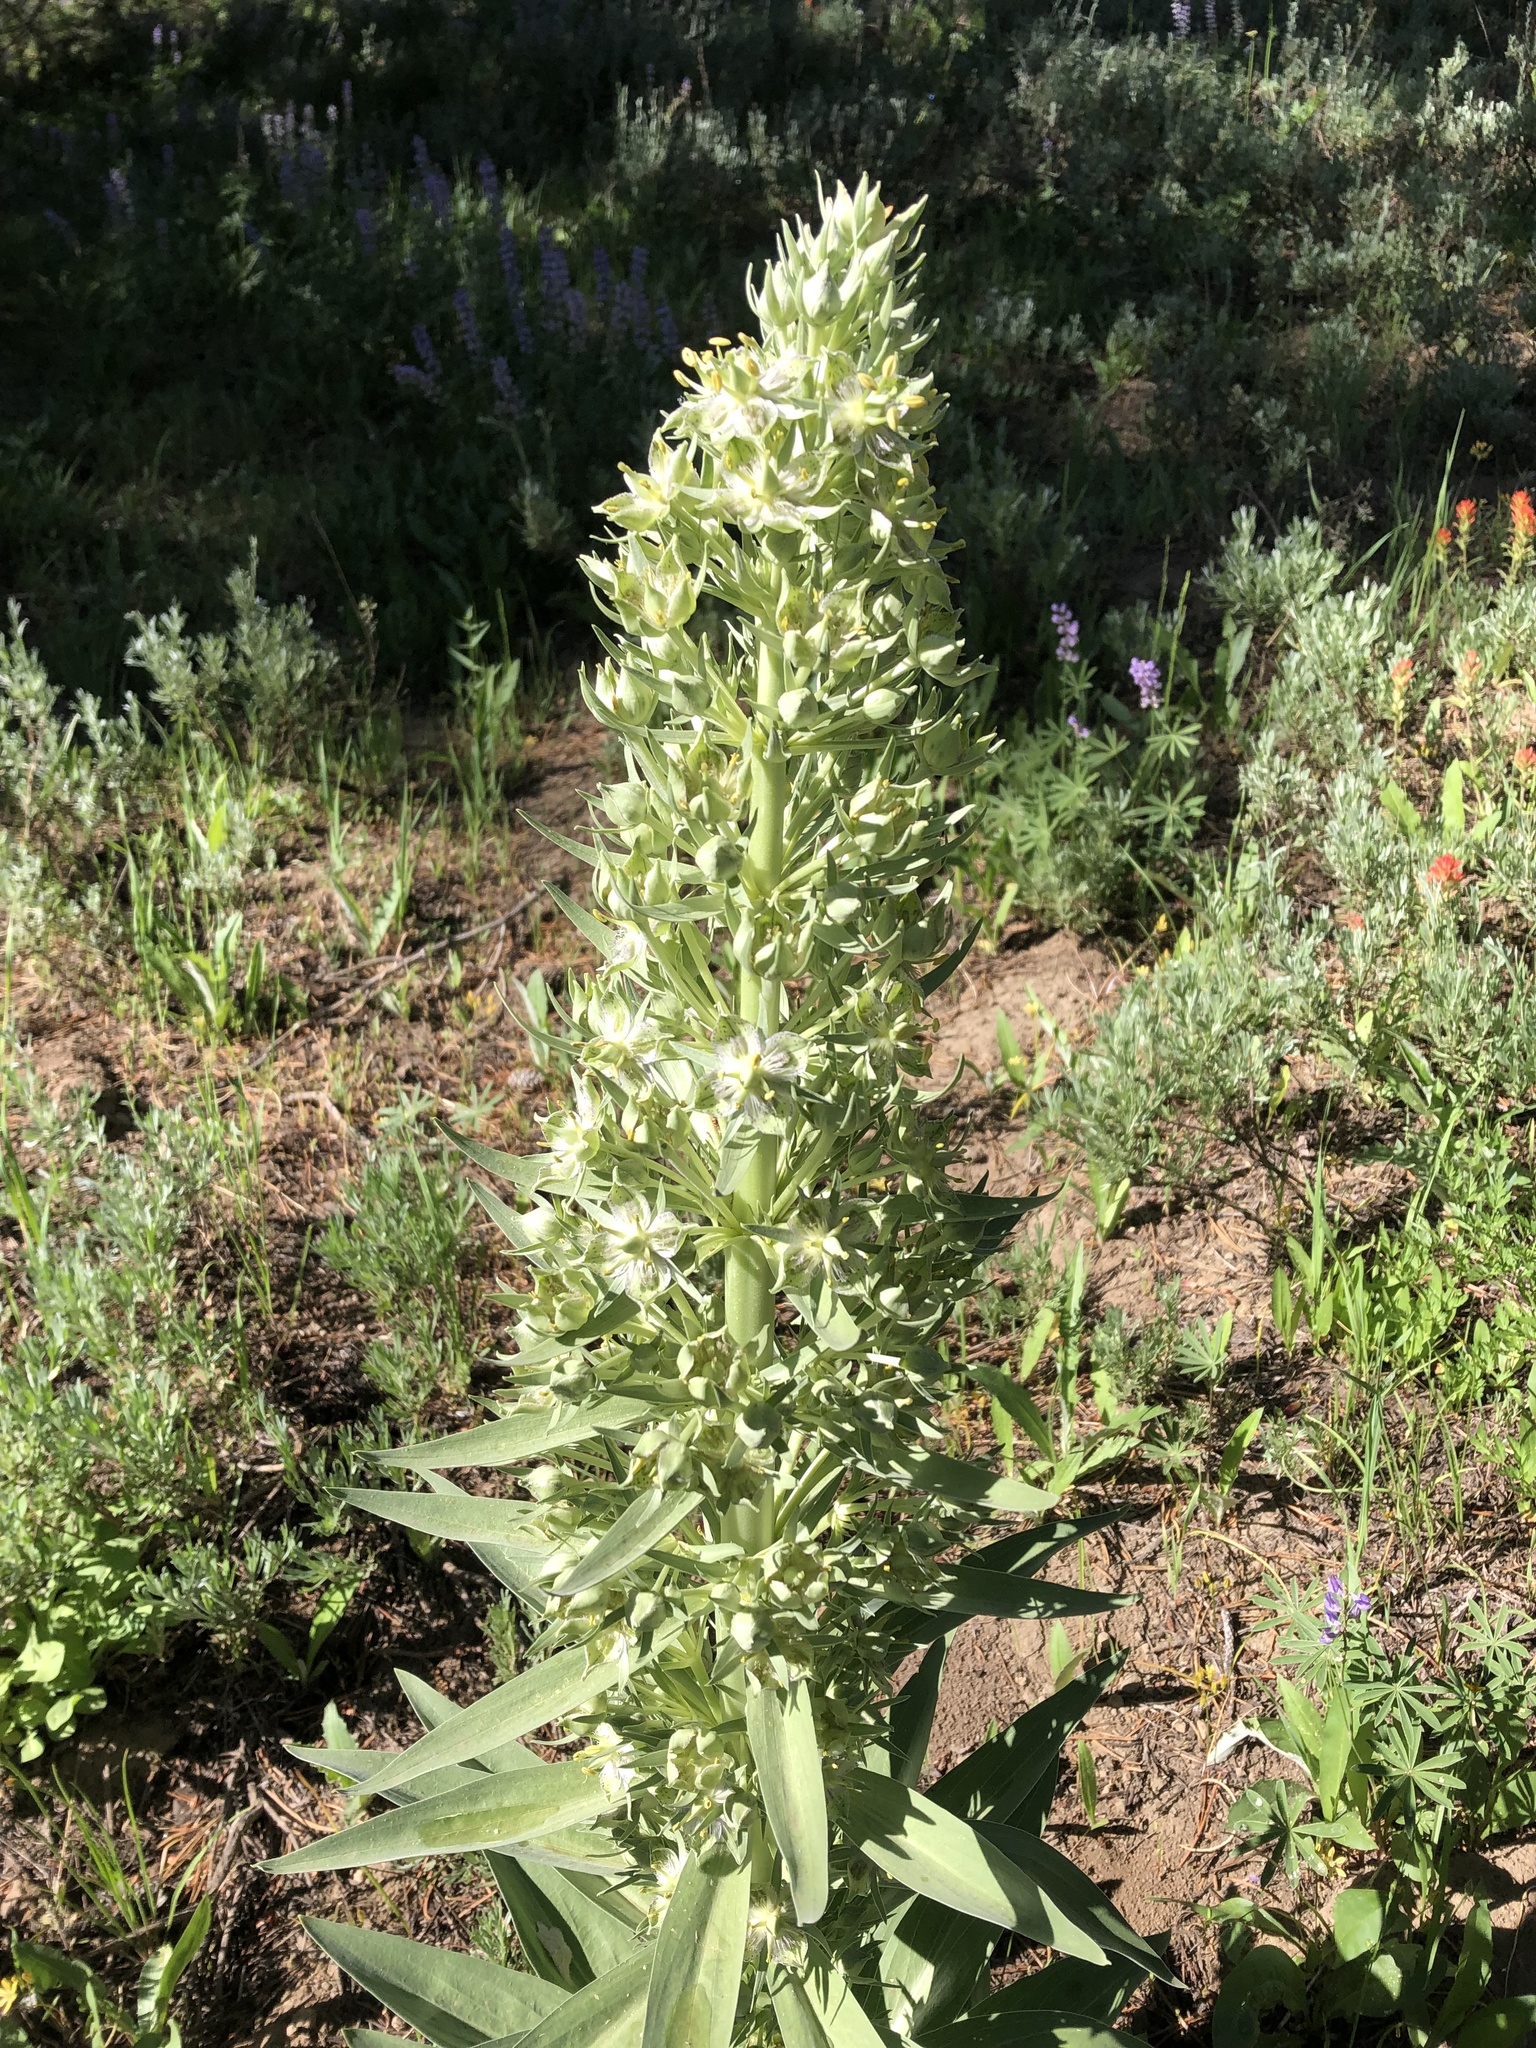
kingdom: Plantae
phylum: Tracheophyta
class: Magnoliopsida
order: Gentianales
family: Gentianaceae
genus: Frasera
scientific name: Frasera speciosa
